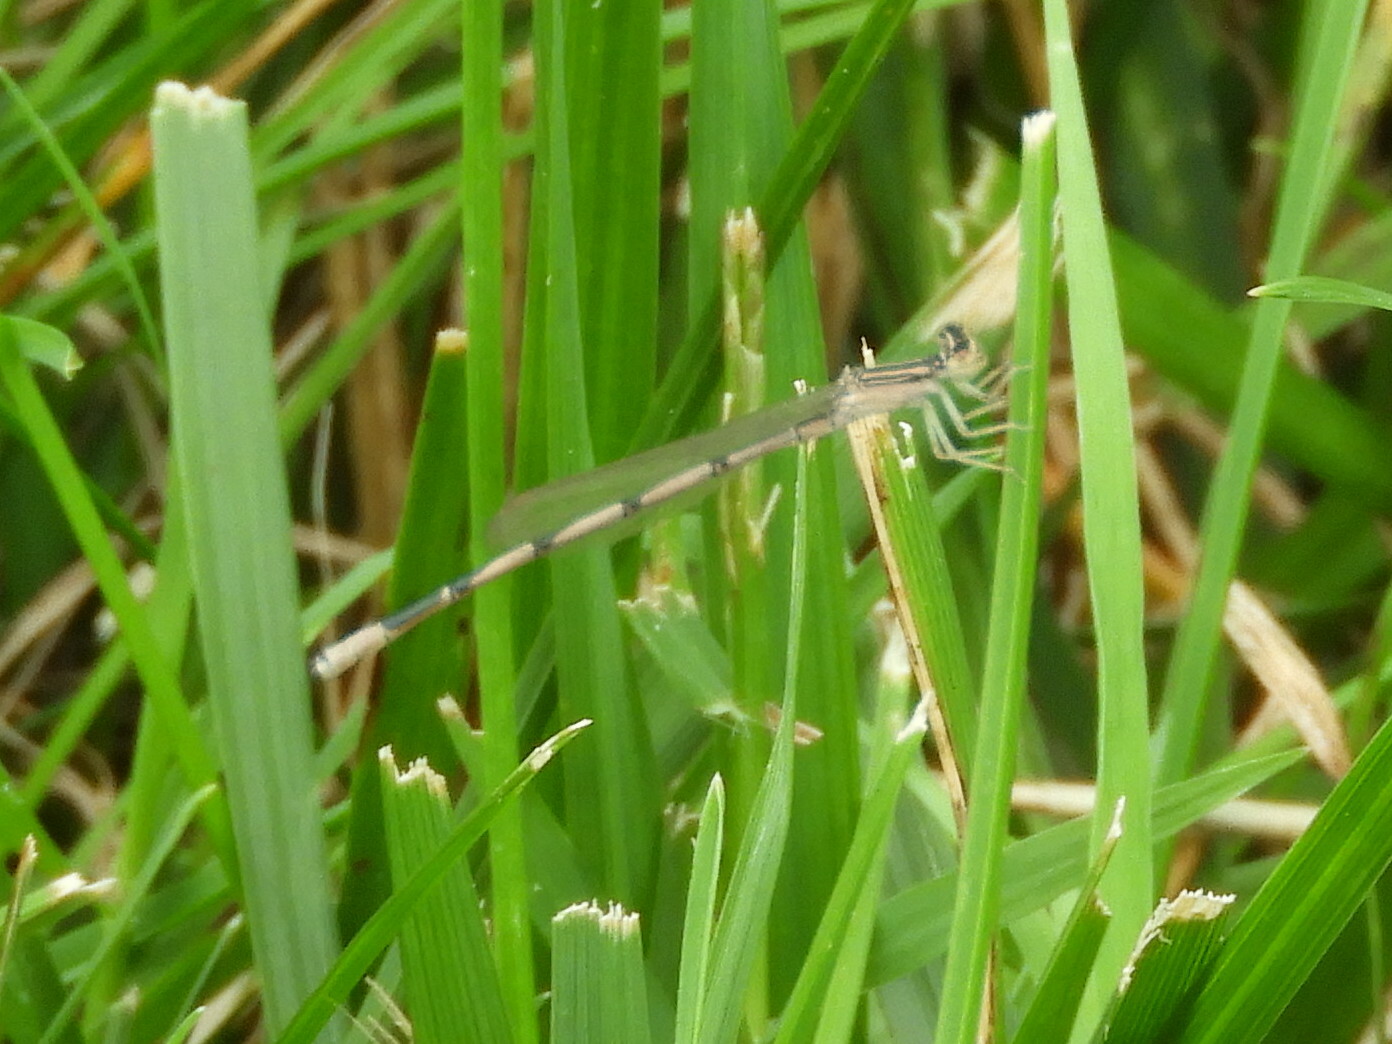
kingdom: Animalia
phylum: Arthropoda
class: Insecta
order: Odonata
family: Coenagrionidae
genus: Enallagma
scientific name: Enallagma basidens
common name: Double-striped bluet
